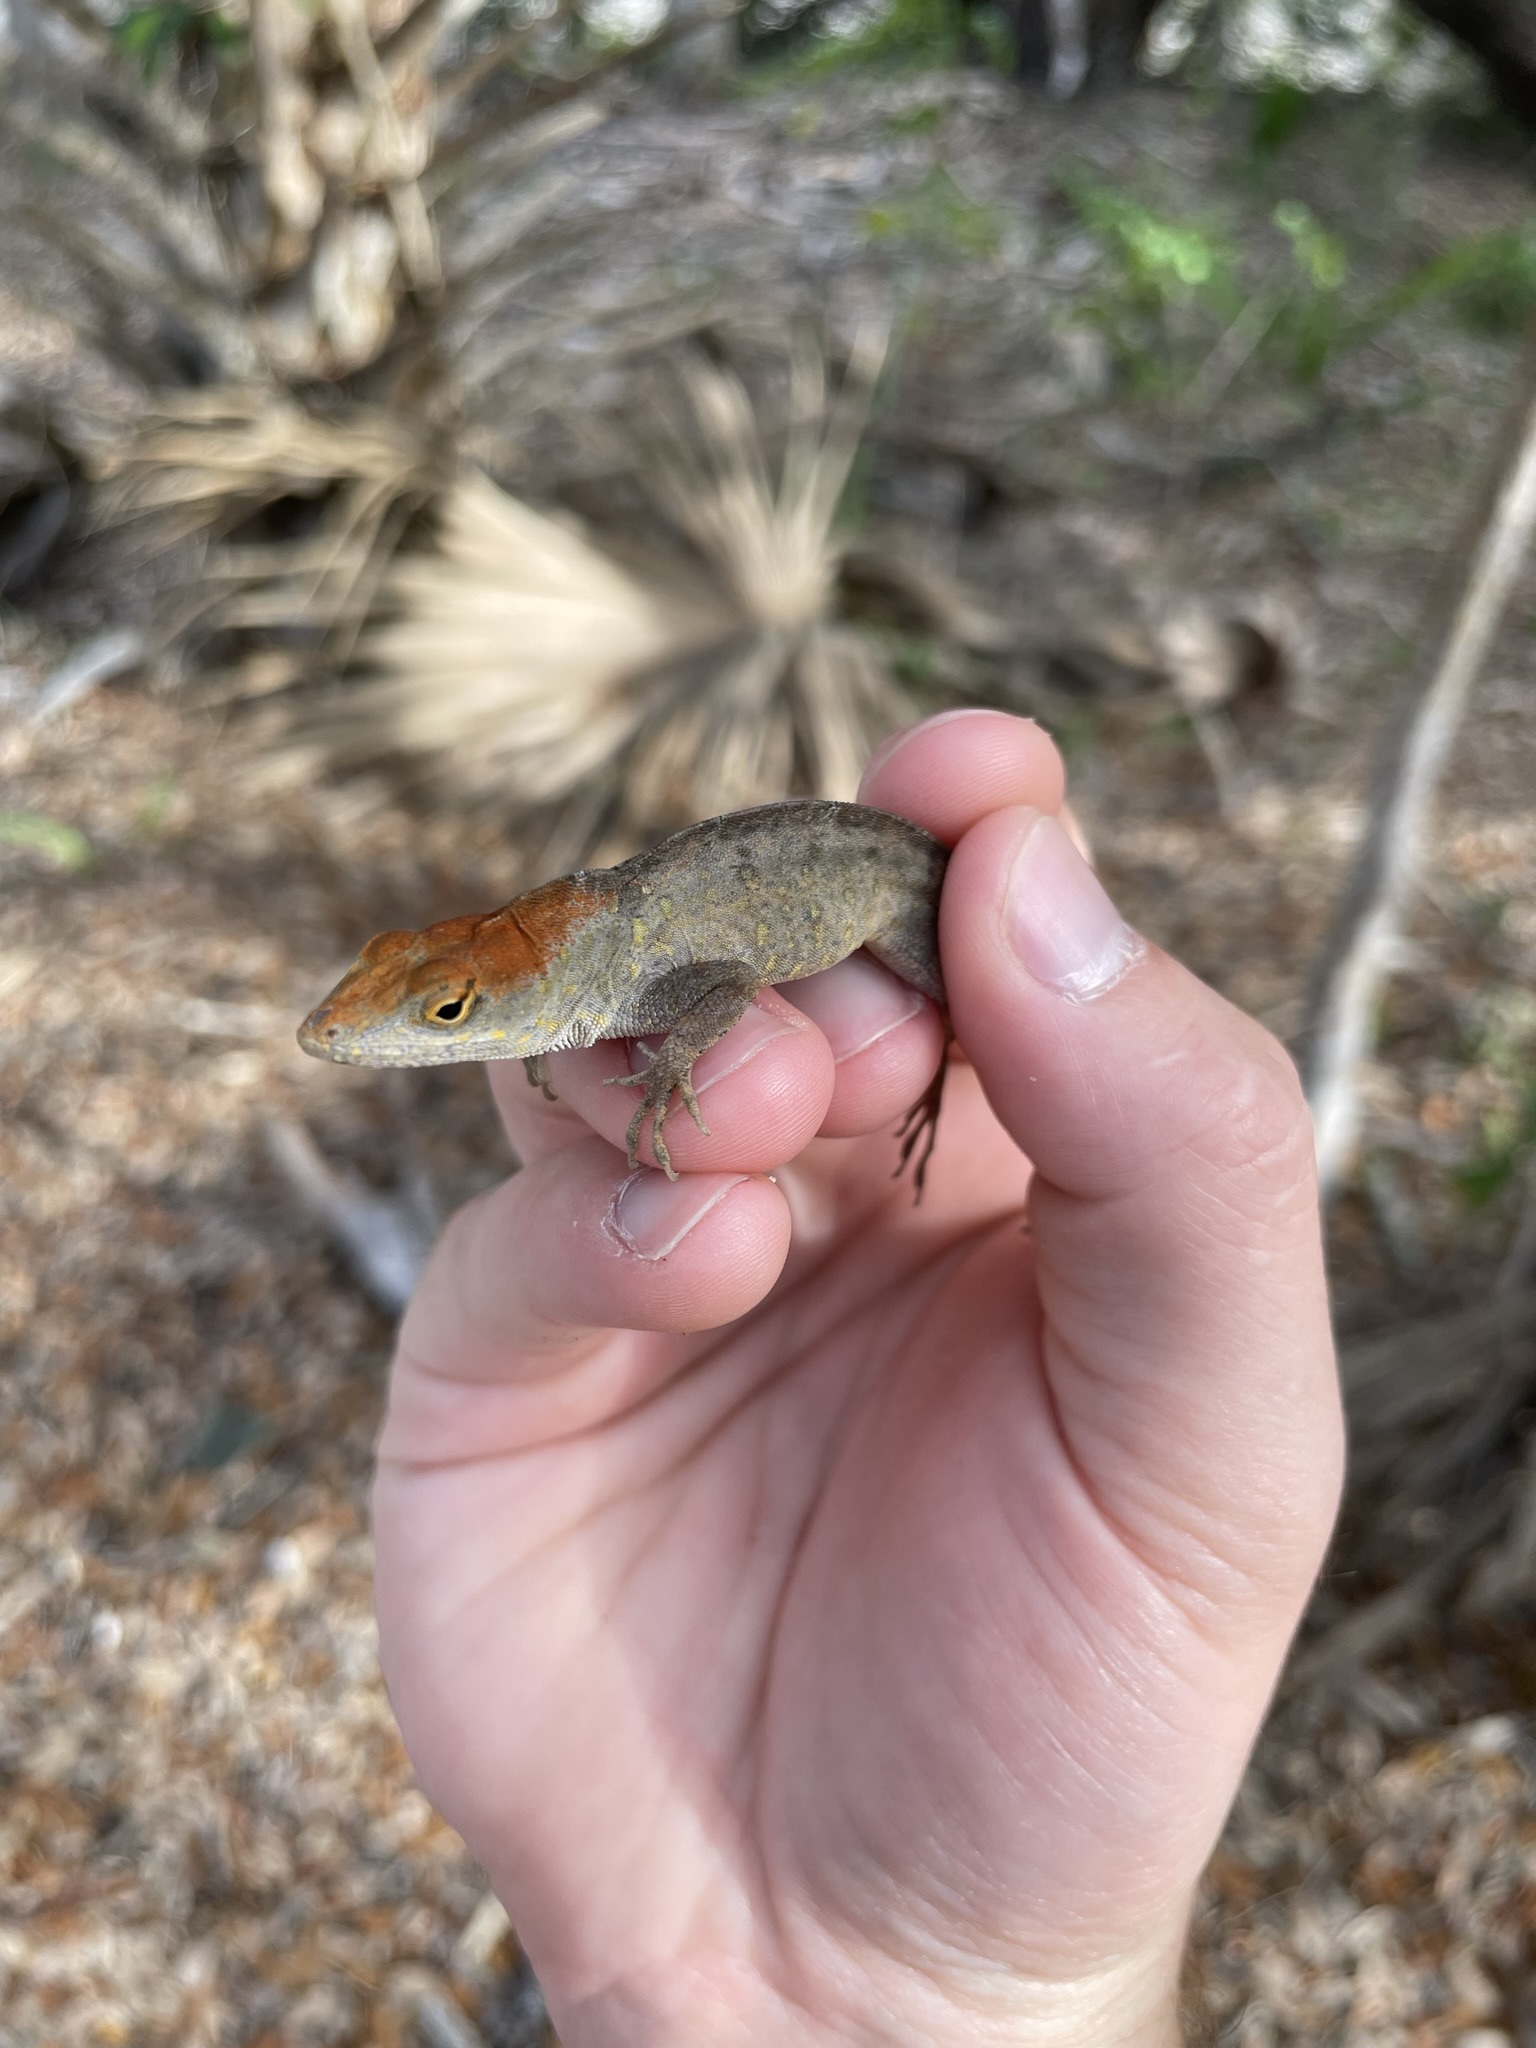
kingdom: Animalia
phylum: Chordata
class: Squamata
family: Dactyloidae
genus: Anolis
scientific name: Anolis sagrei
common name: Brown anole
